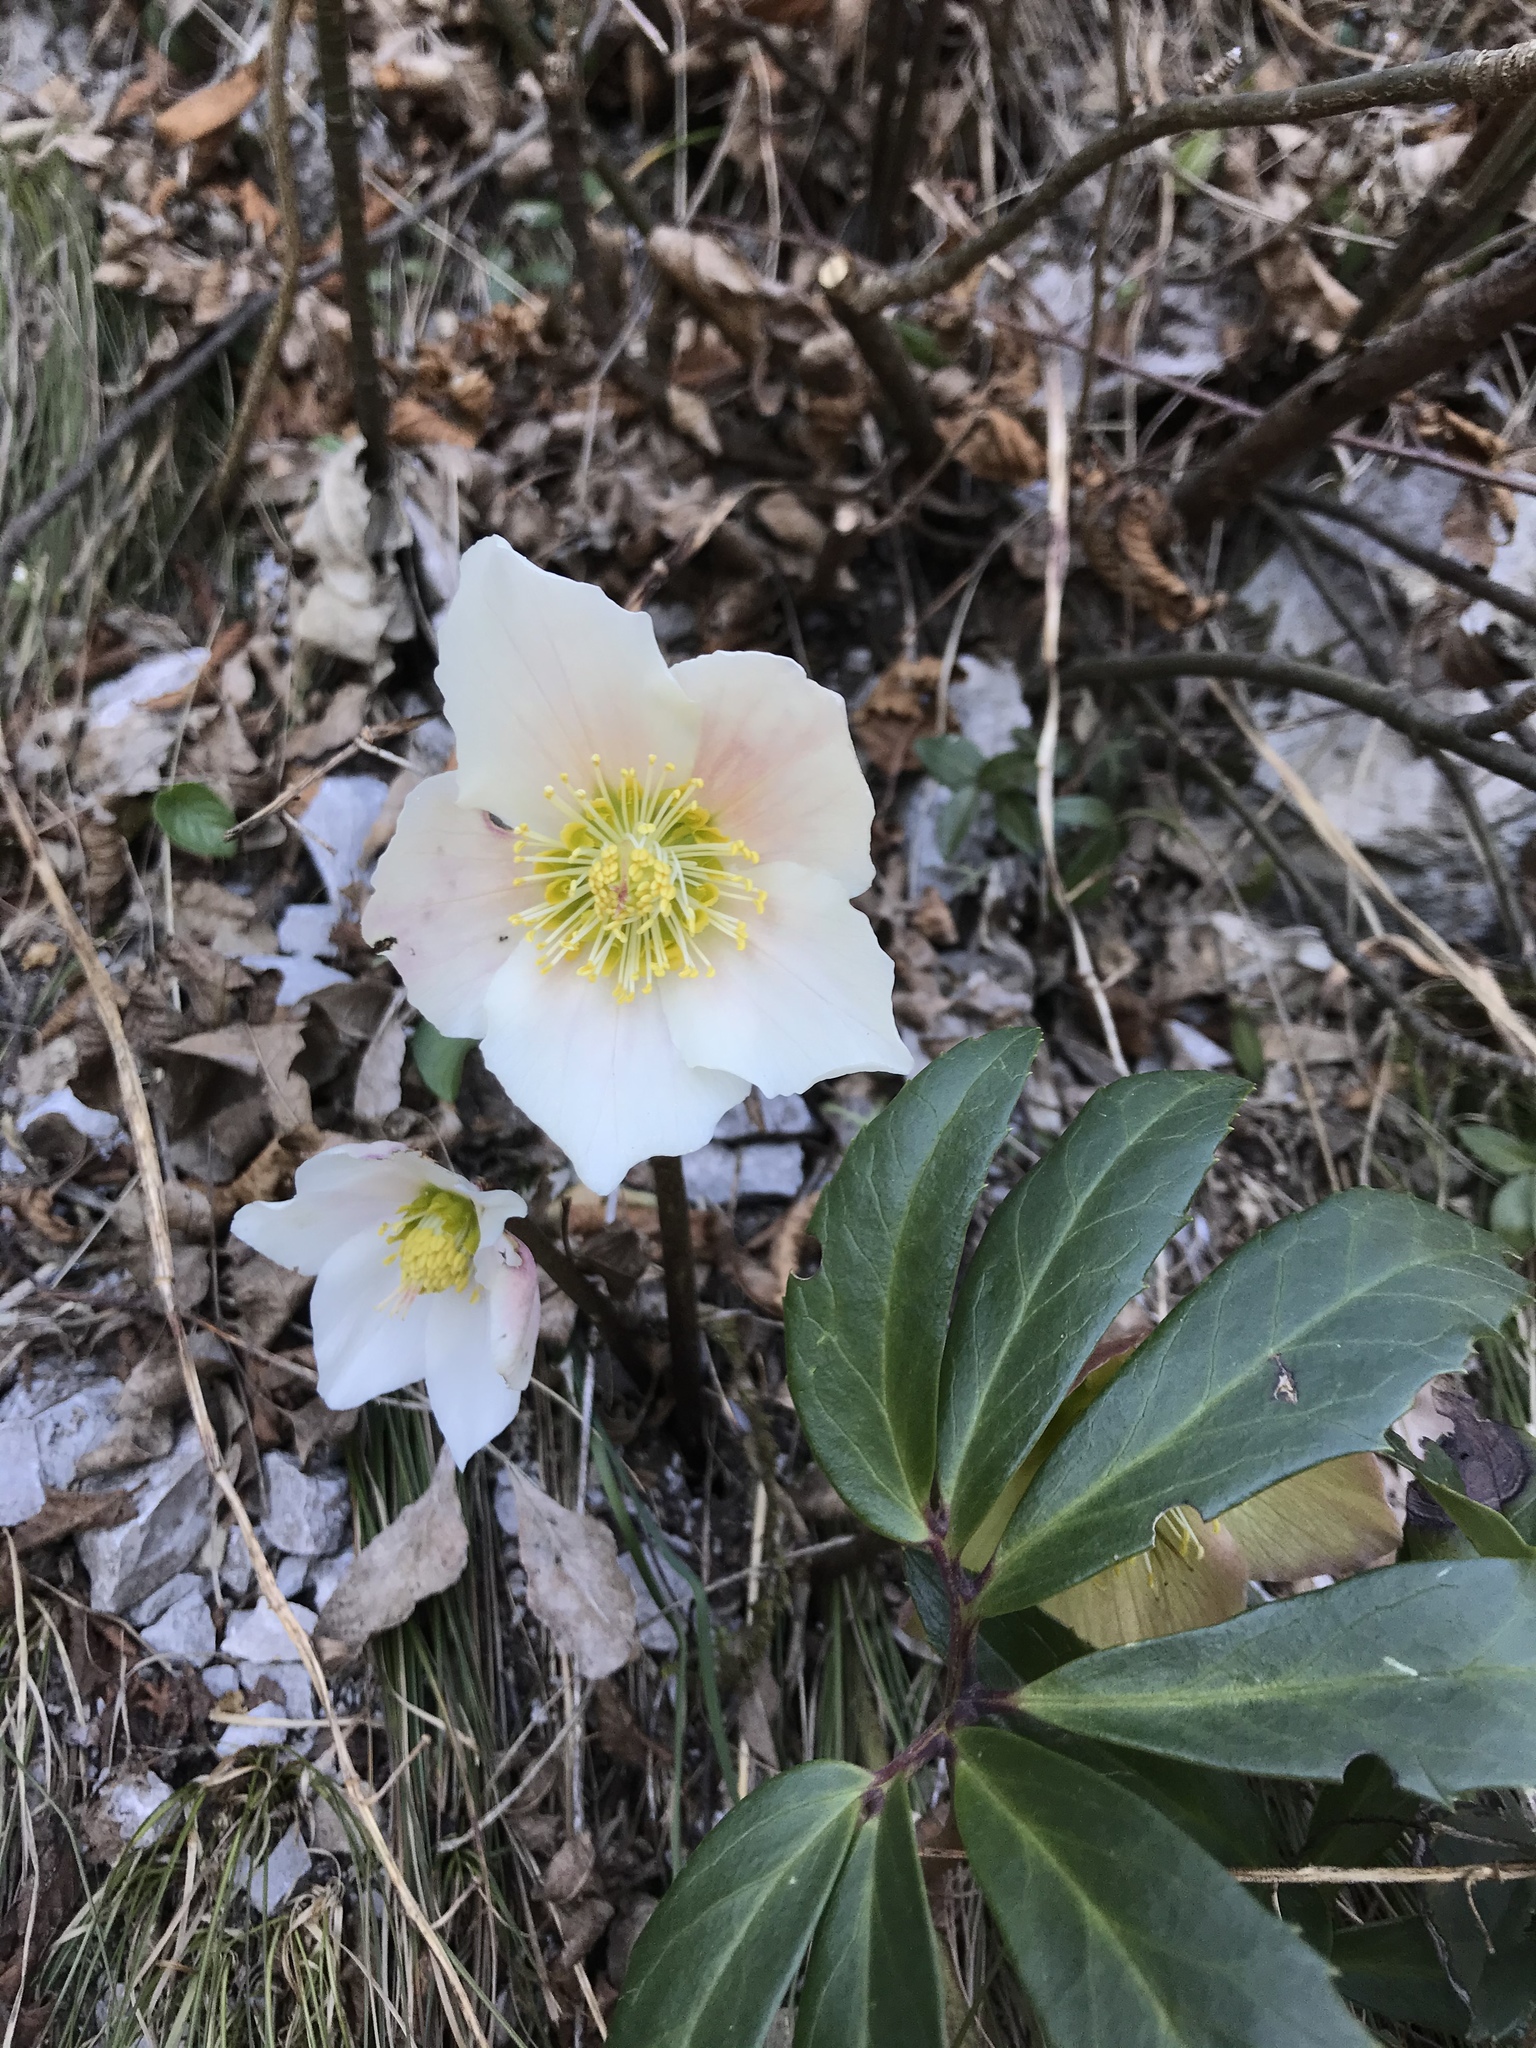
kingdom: Plantae
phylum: Tracheophyta
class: Magnoliopsida
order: Ranunculales
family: Ranunculaceae
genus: Helleborus
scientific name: Helleborus niger
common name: Black hellebore
